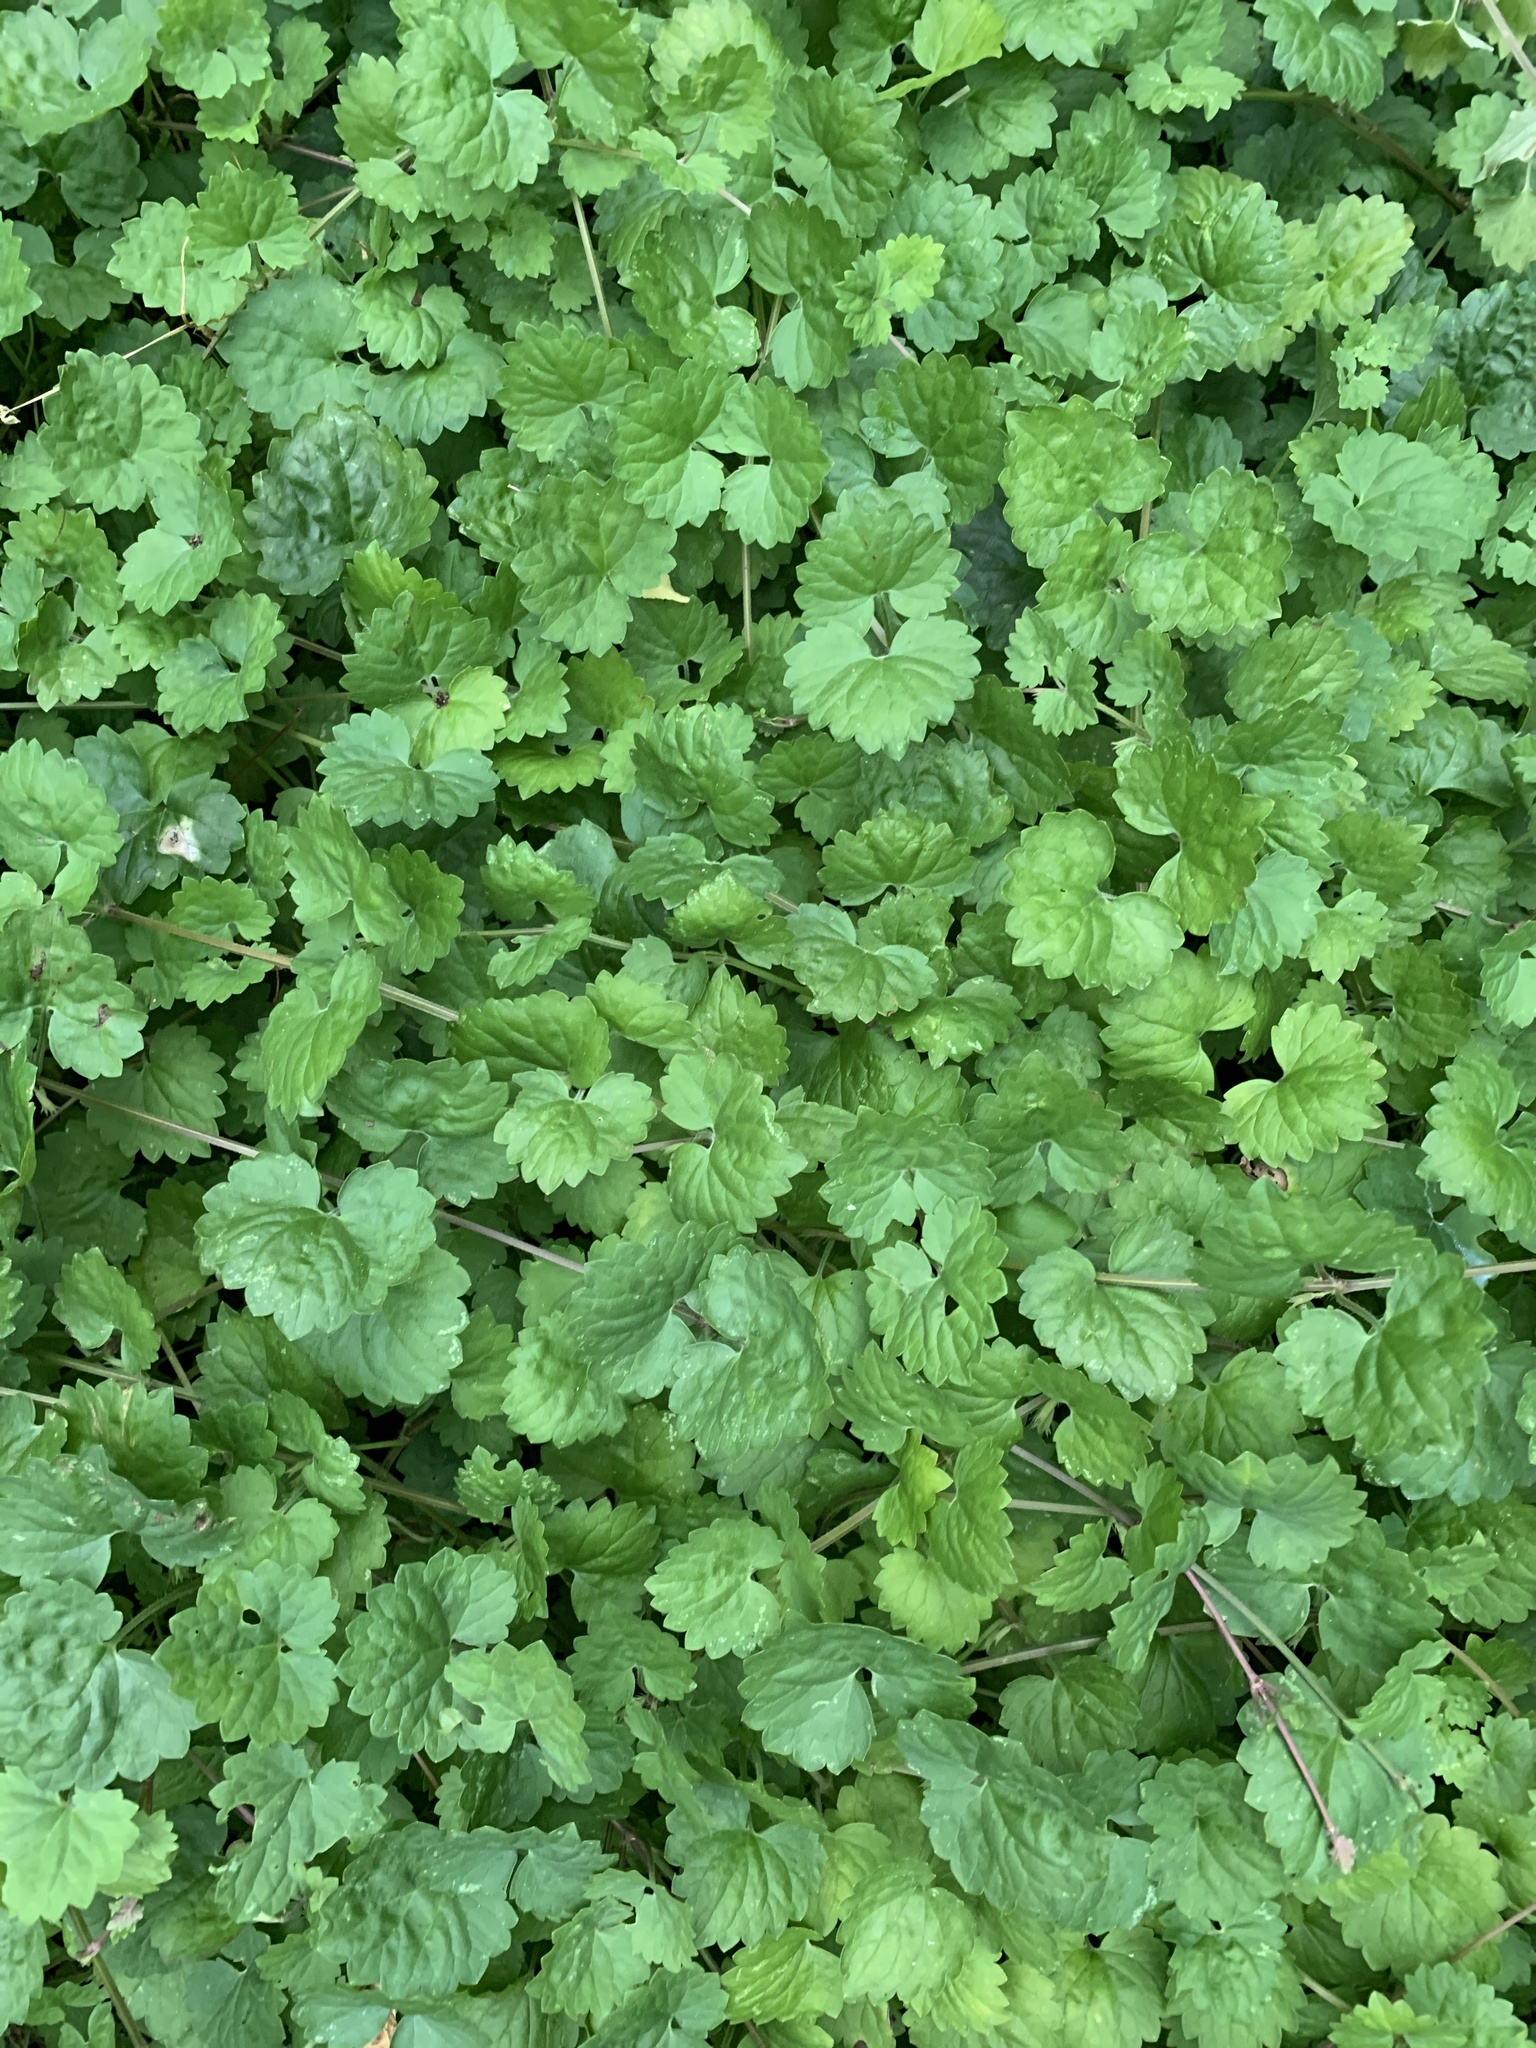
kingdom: Plantae
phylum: Tracheophyta
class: Magnoliopsida
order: Lamiales
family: Lamiaceae
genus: Glechoma
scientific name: Glechoma hederacea
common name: Ground ivy
